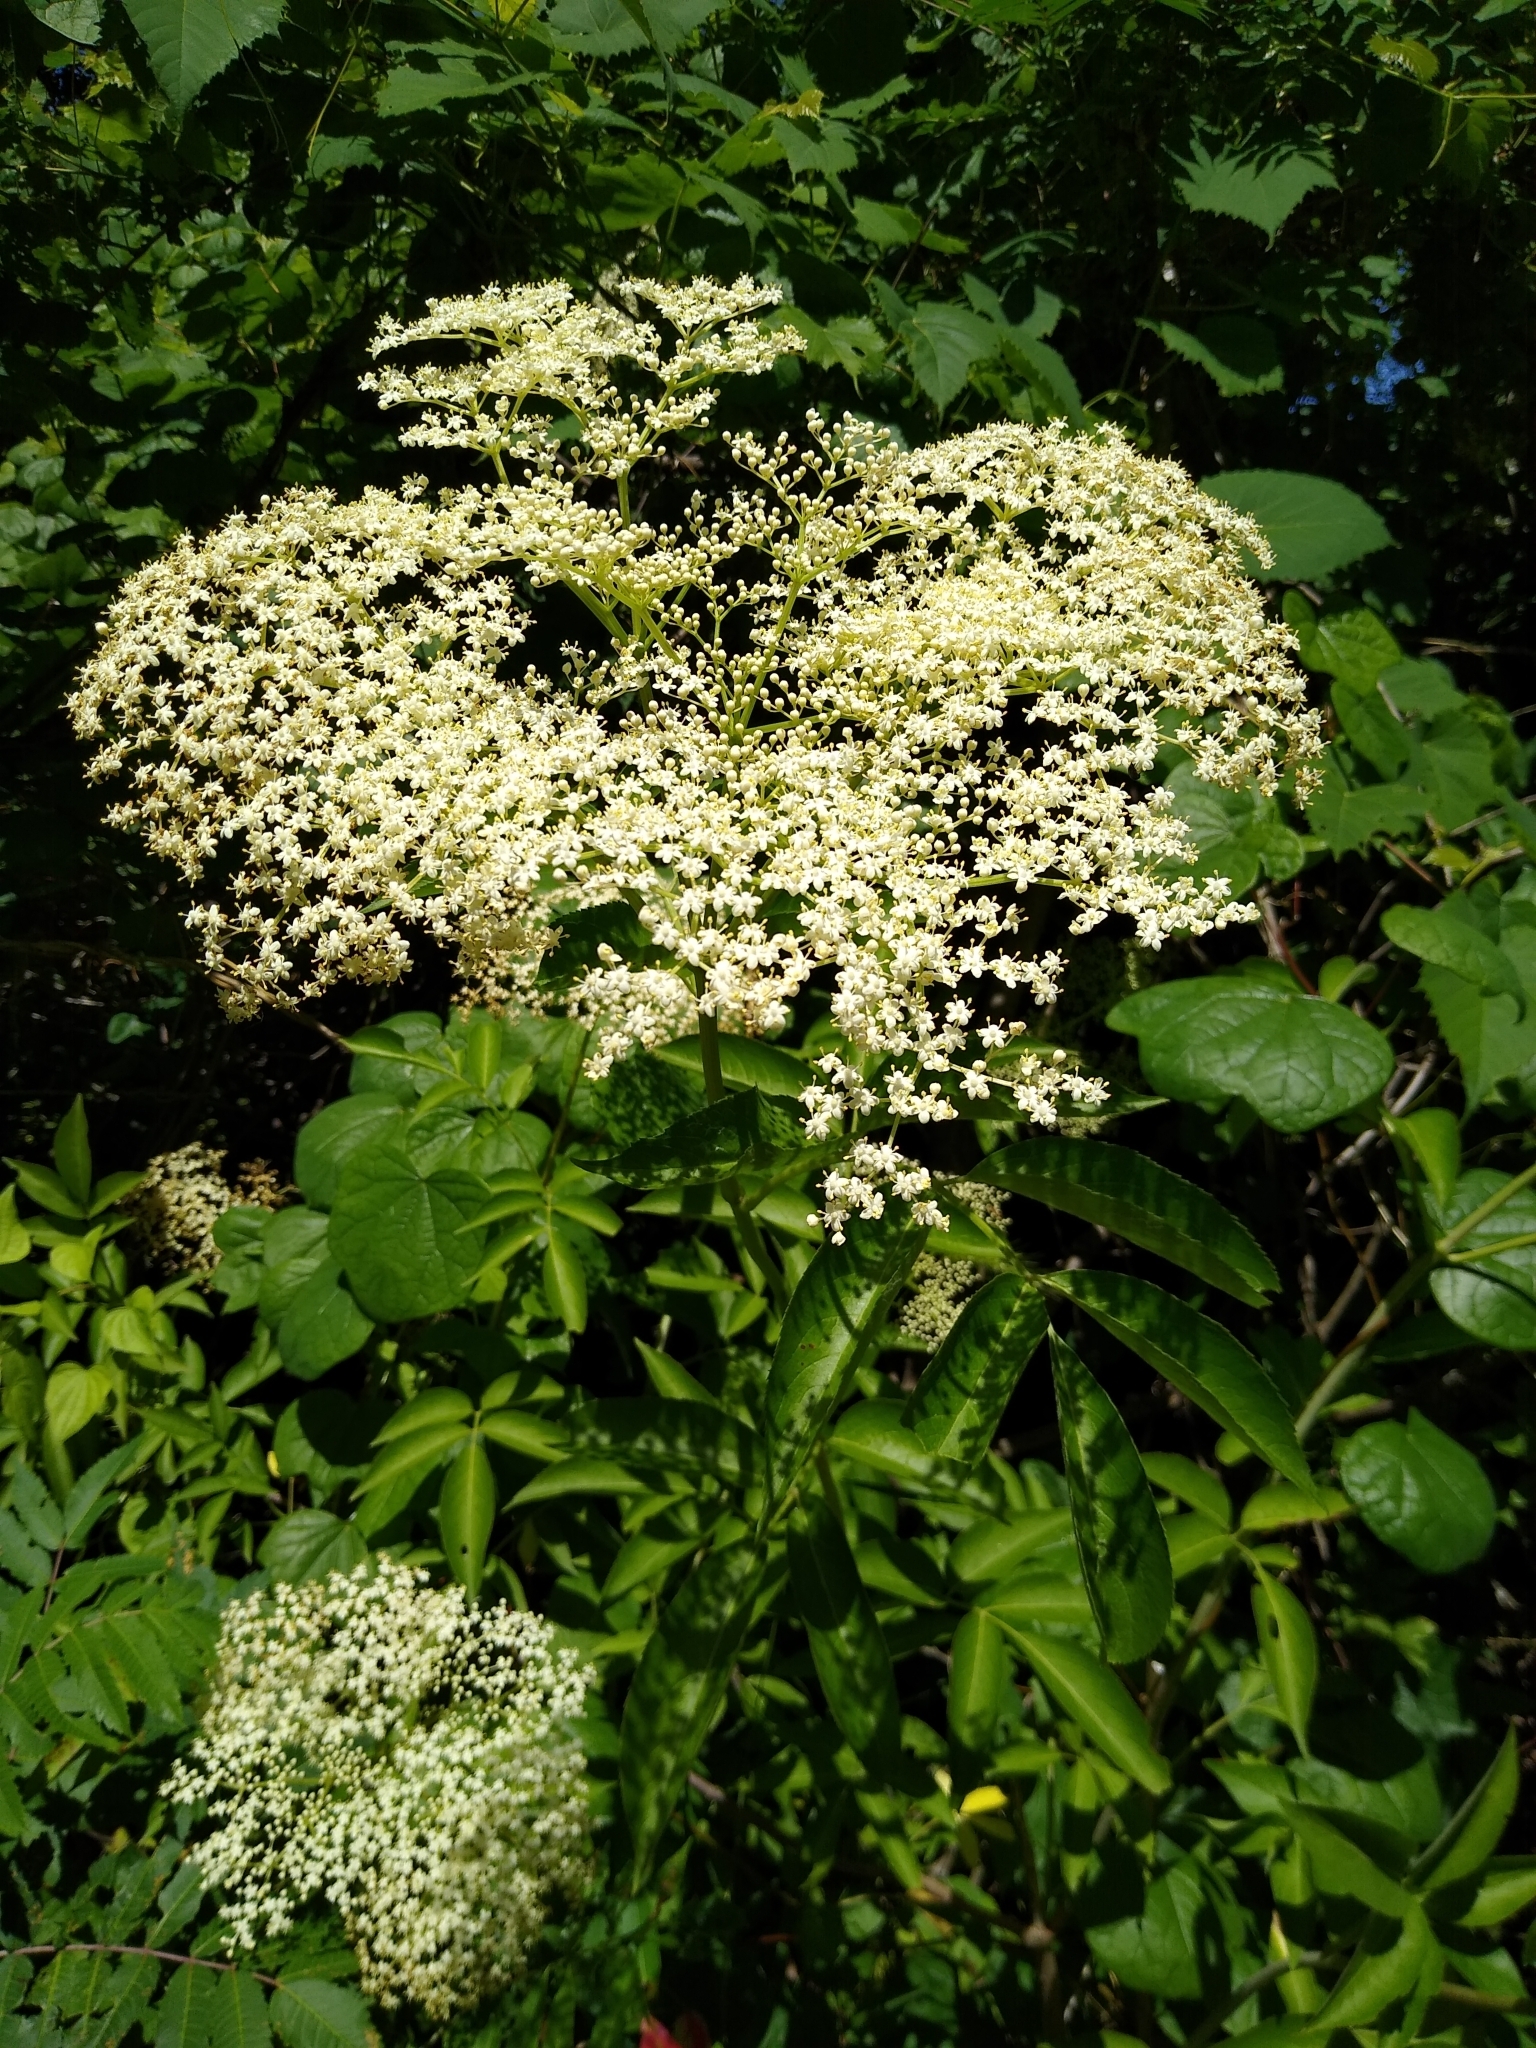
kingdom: Plantae
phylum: Tracheophyta
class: Magnoliopsida
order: Dipsacales
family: Viburnaceae
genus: Sambucus
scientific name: Sambucus canadensis
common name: American elder
